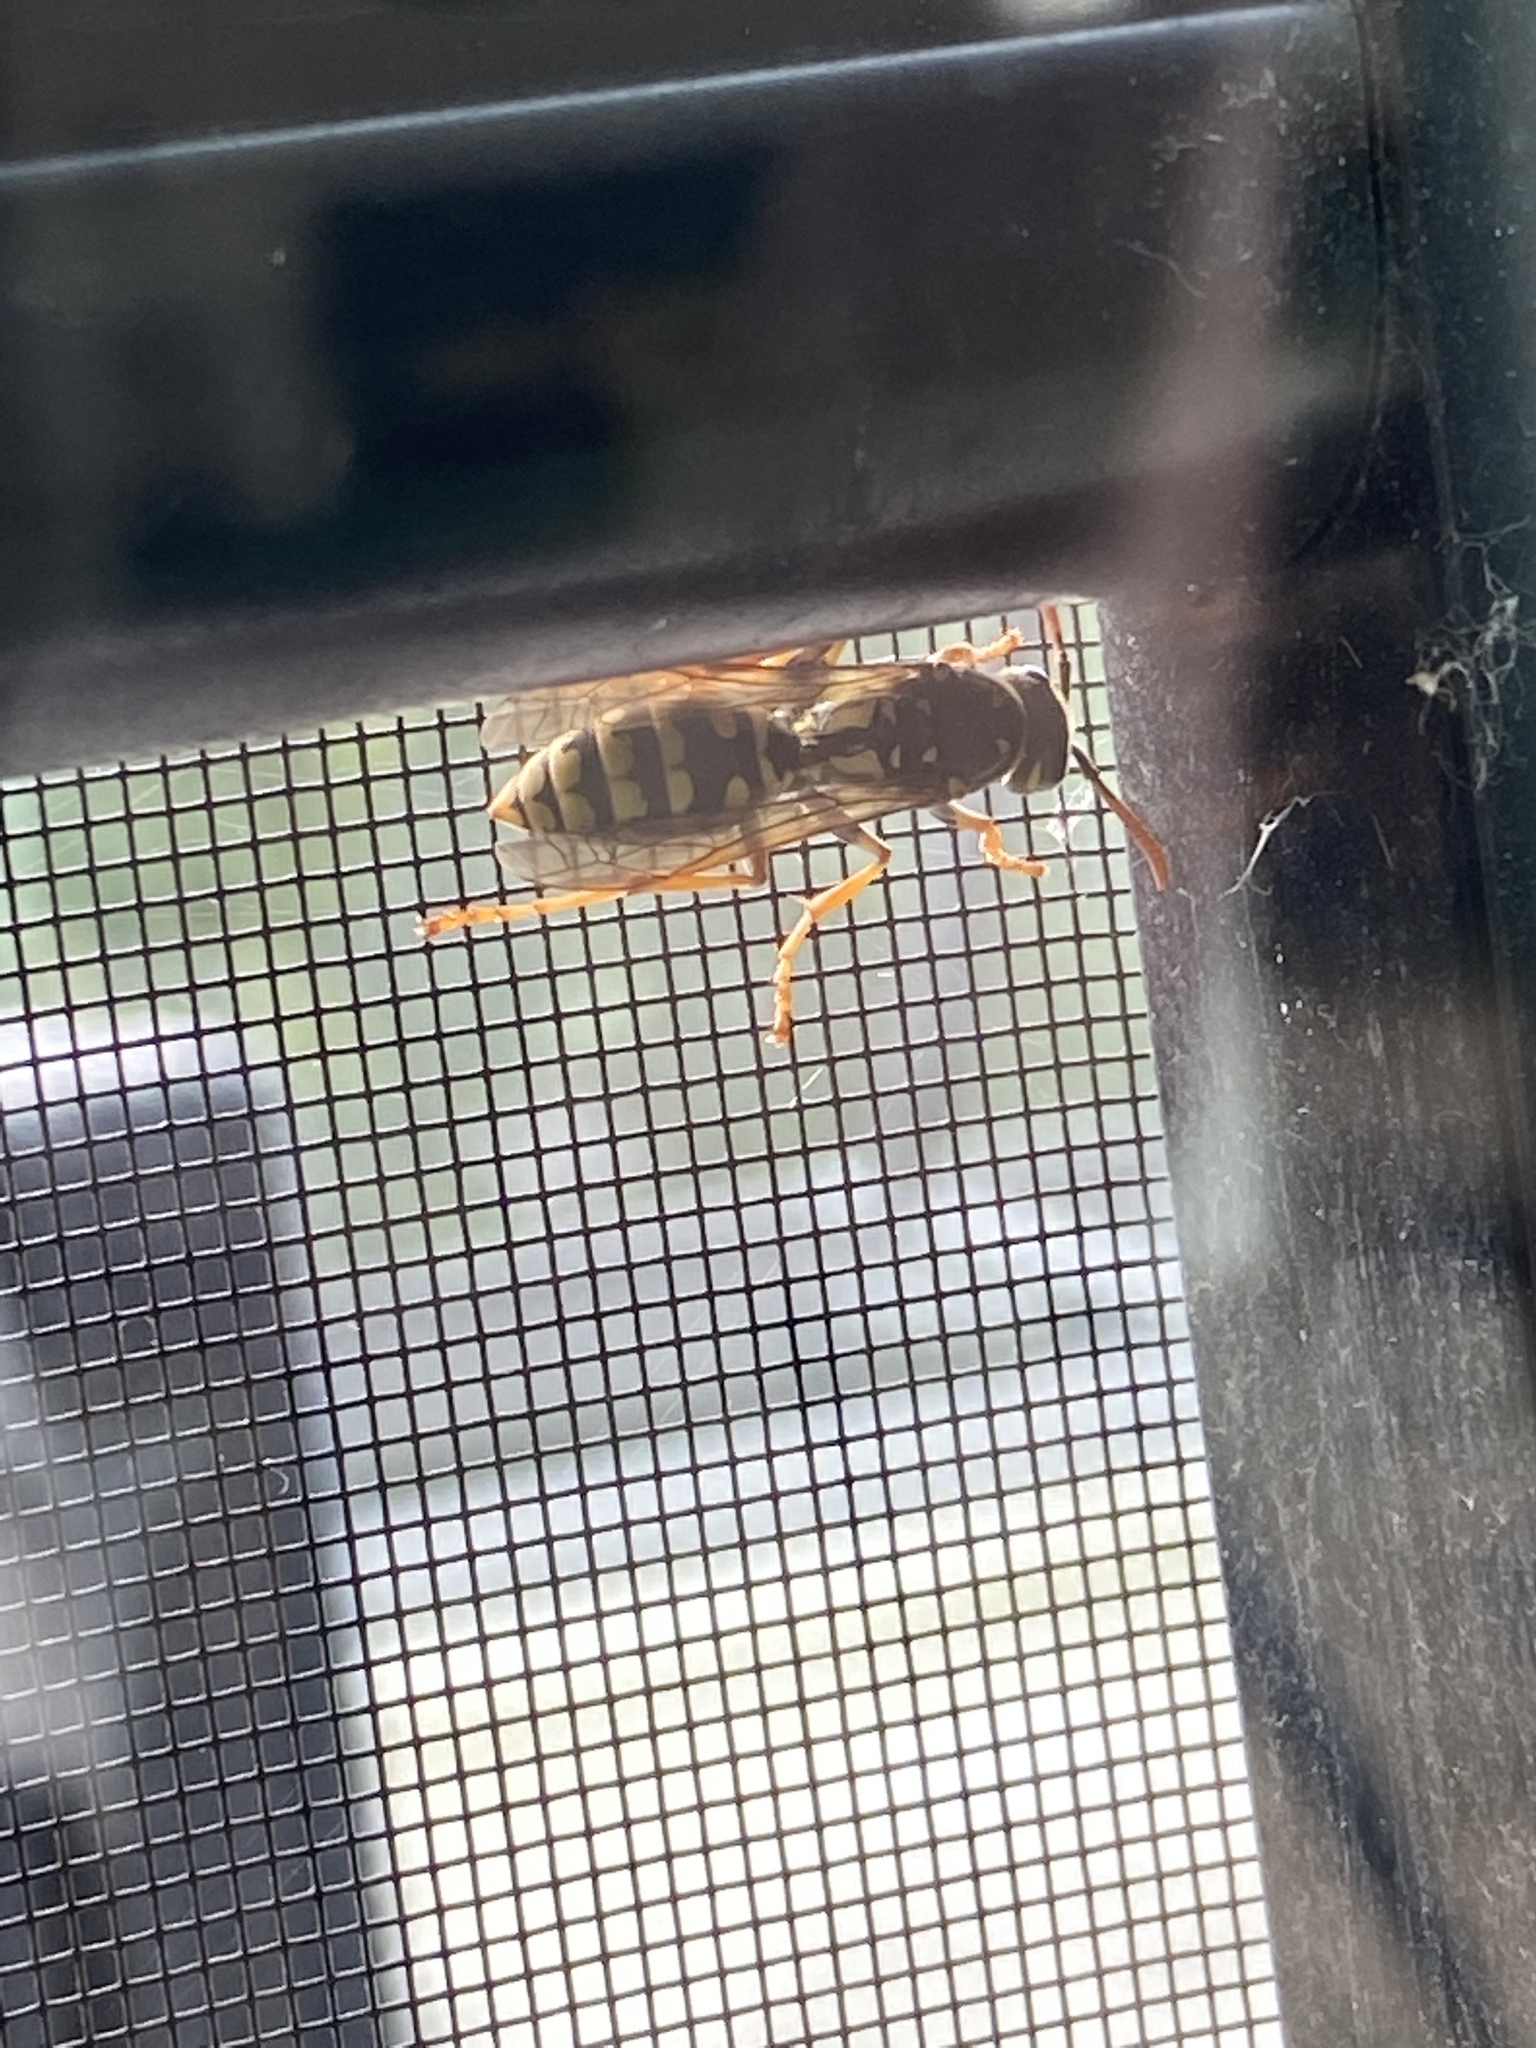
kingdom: Animalia
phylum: Arthropoda
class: Insecta
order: Hymenoptera
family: Eumenidae
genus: Polistes
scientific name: Polistes dominula
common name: Paper wasp
